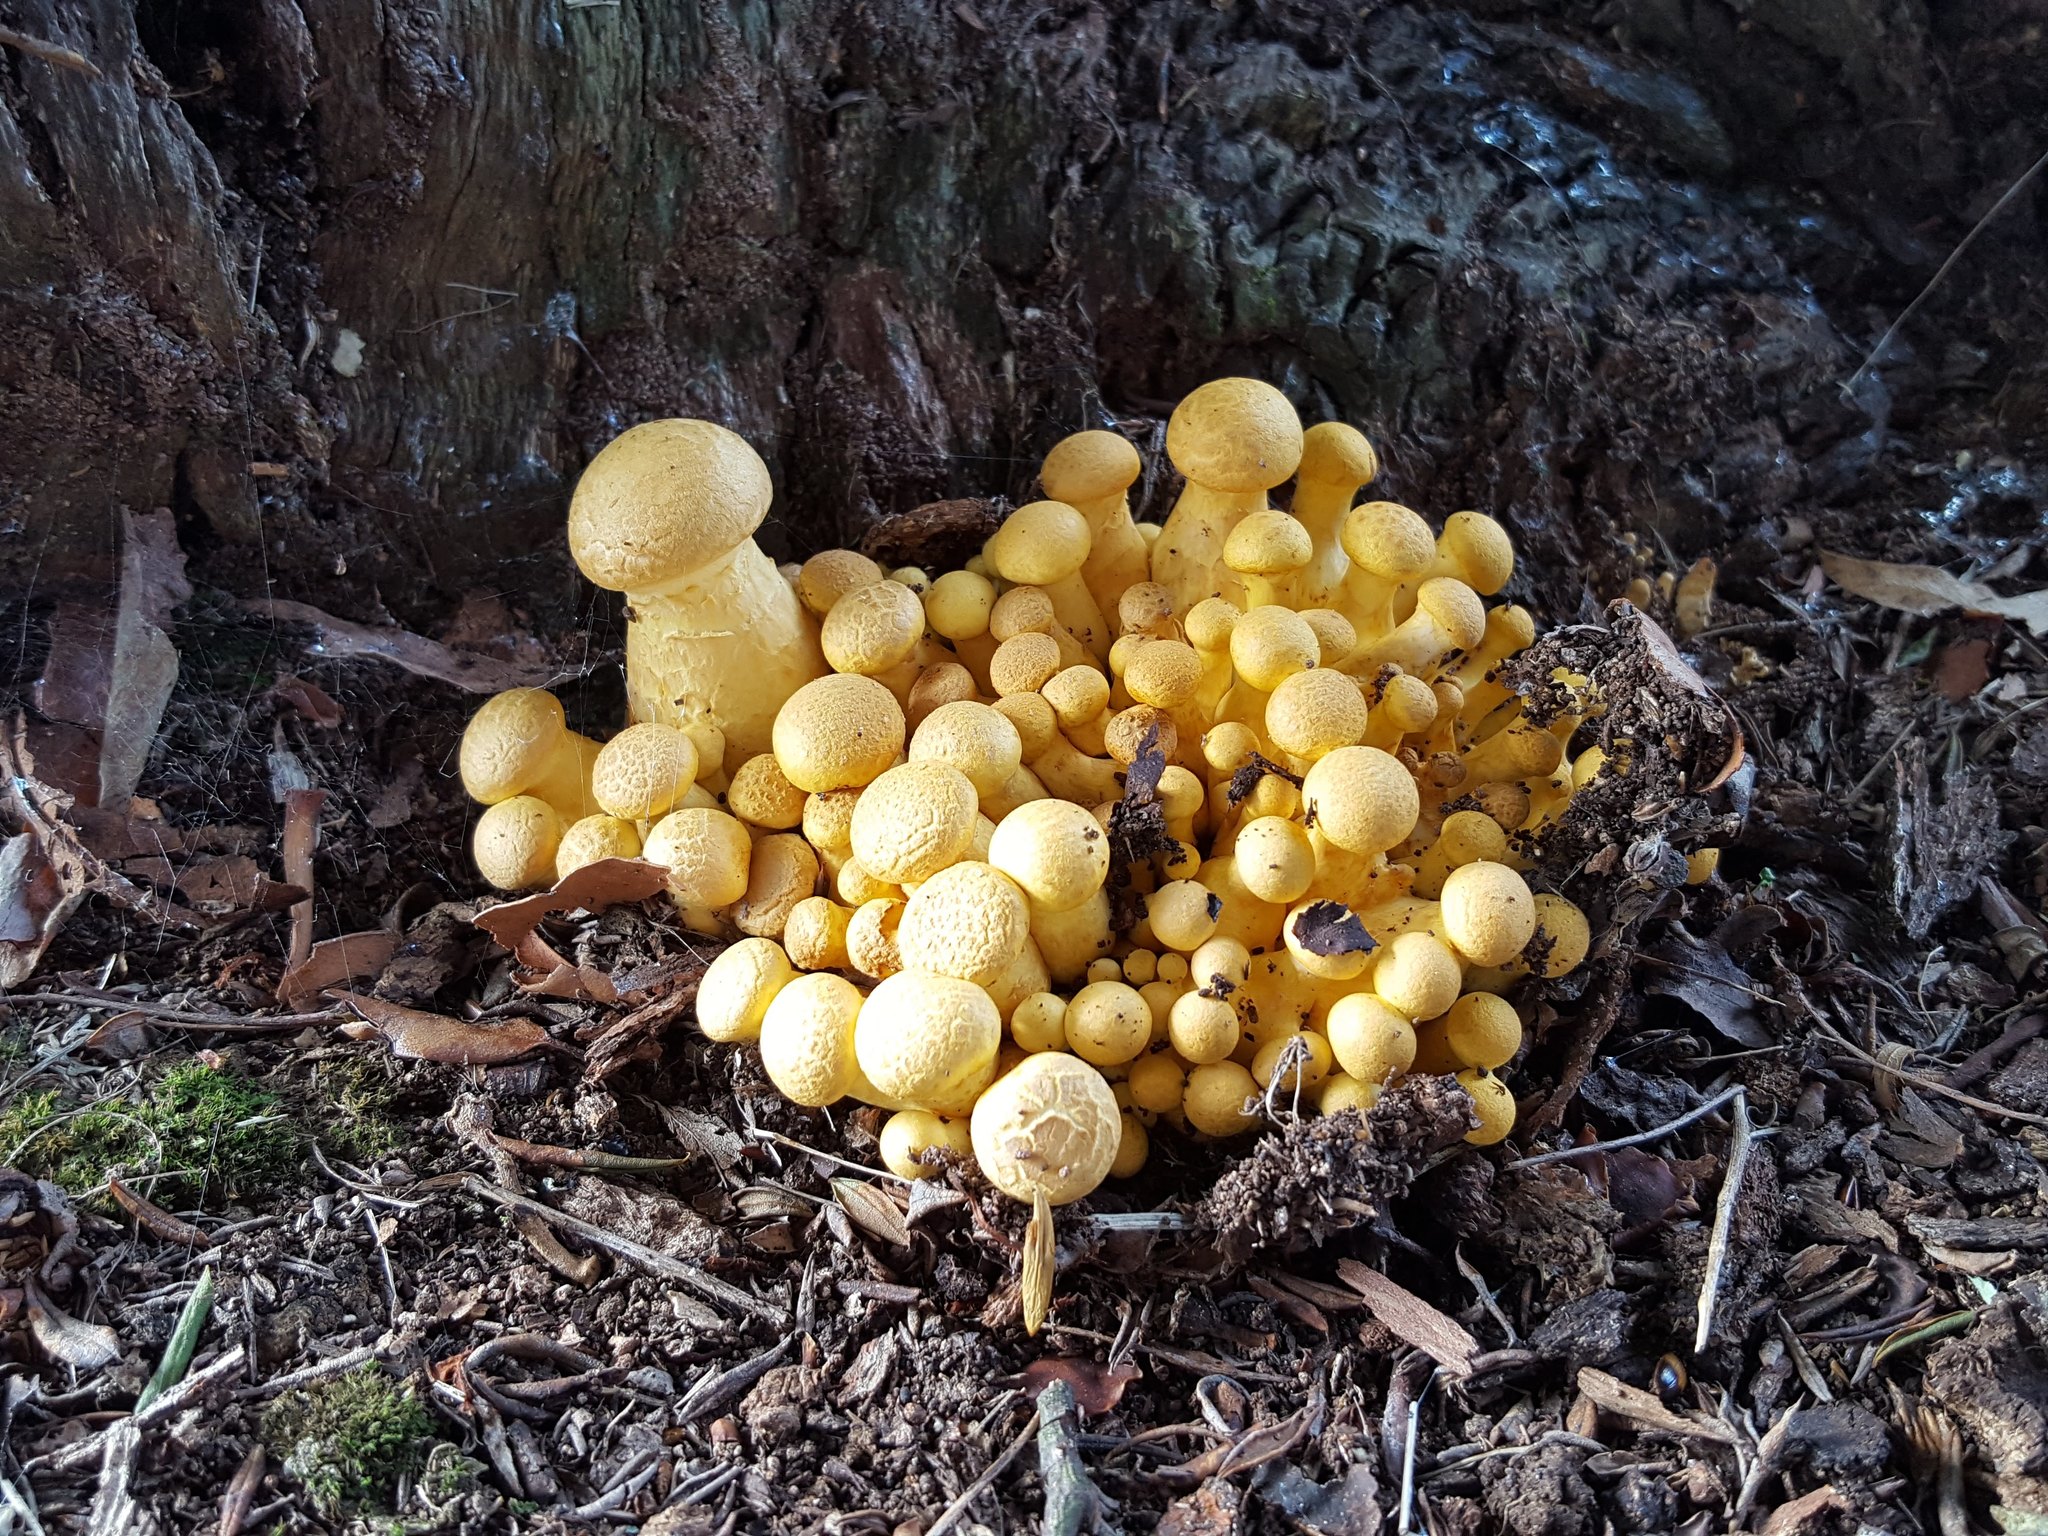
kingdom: Fungi
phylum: Basidiomycota
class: Agaricomycetes
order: Agaricales
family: Hymenogastraceae
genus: Gymnopilus
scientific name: Gymnopilus junonius
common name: Spectacular rustgill
